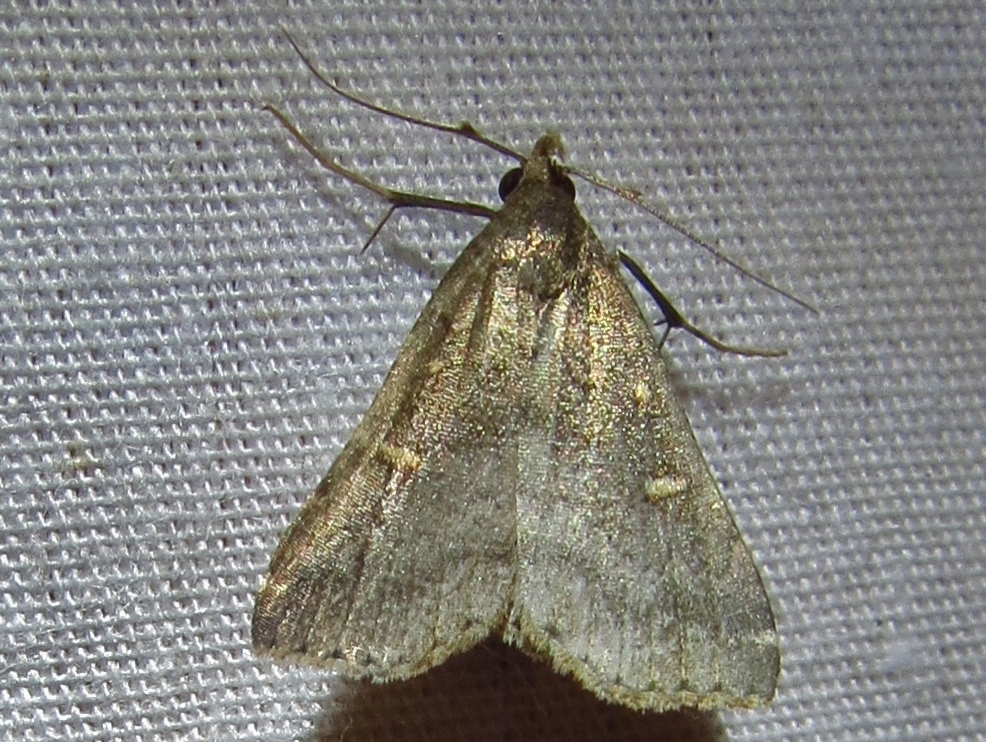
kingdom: Animalia
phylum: Arthropoda
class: Insecta
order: Lepidoptera
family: Erebidae
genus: Tetanolita
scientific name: Tetanolita floridana
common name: Florida tetanolita moth
